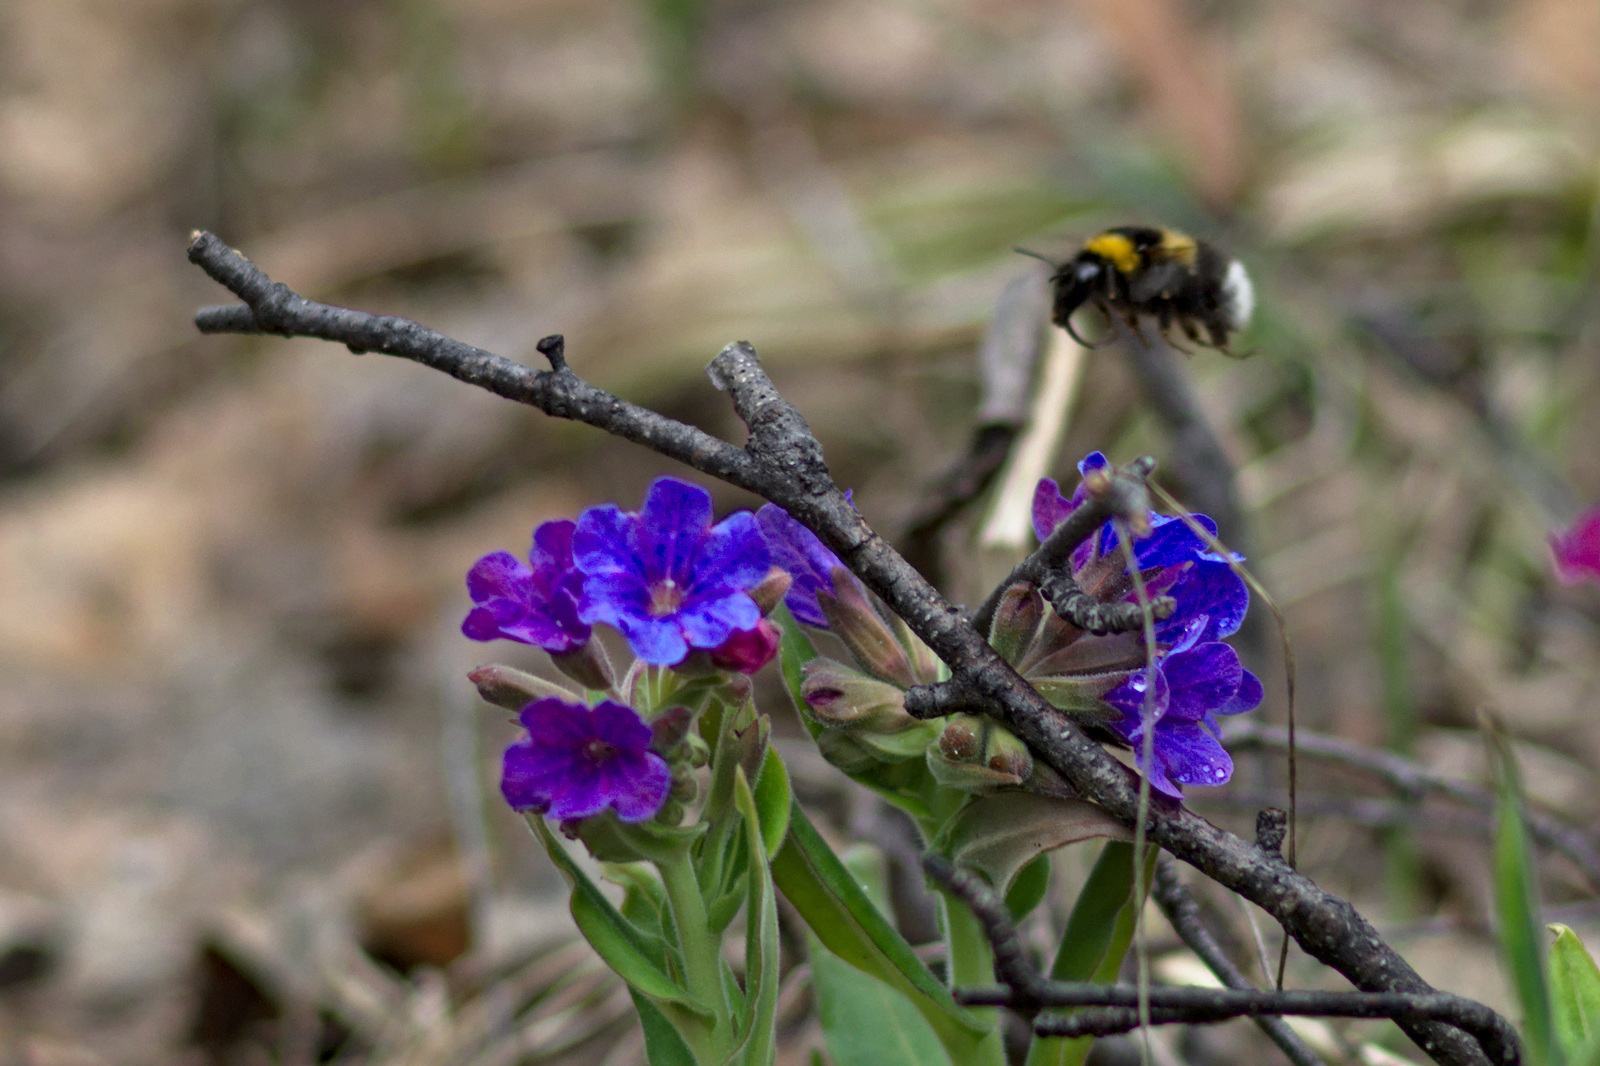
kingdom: Animalia
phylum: Arthropoda
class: Insecta
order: Hymenoptera
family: Apidae
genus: Bombus
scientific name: Bombus hortorum
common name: Garden bumblebee
